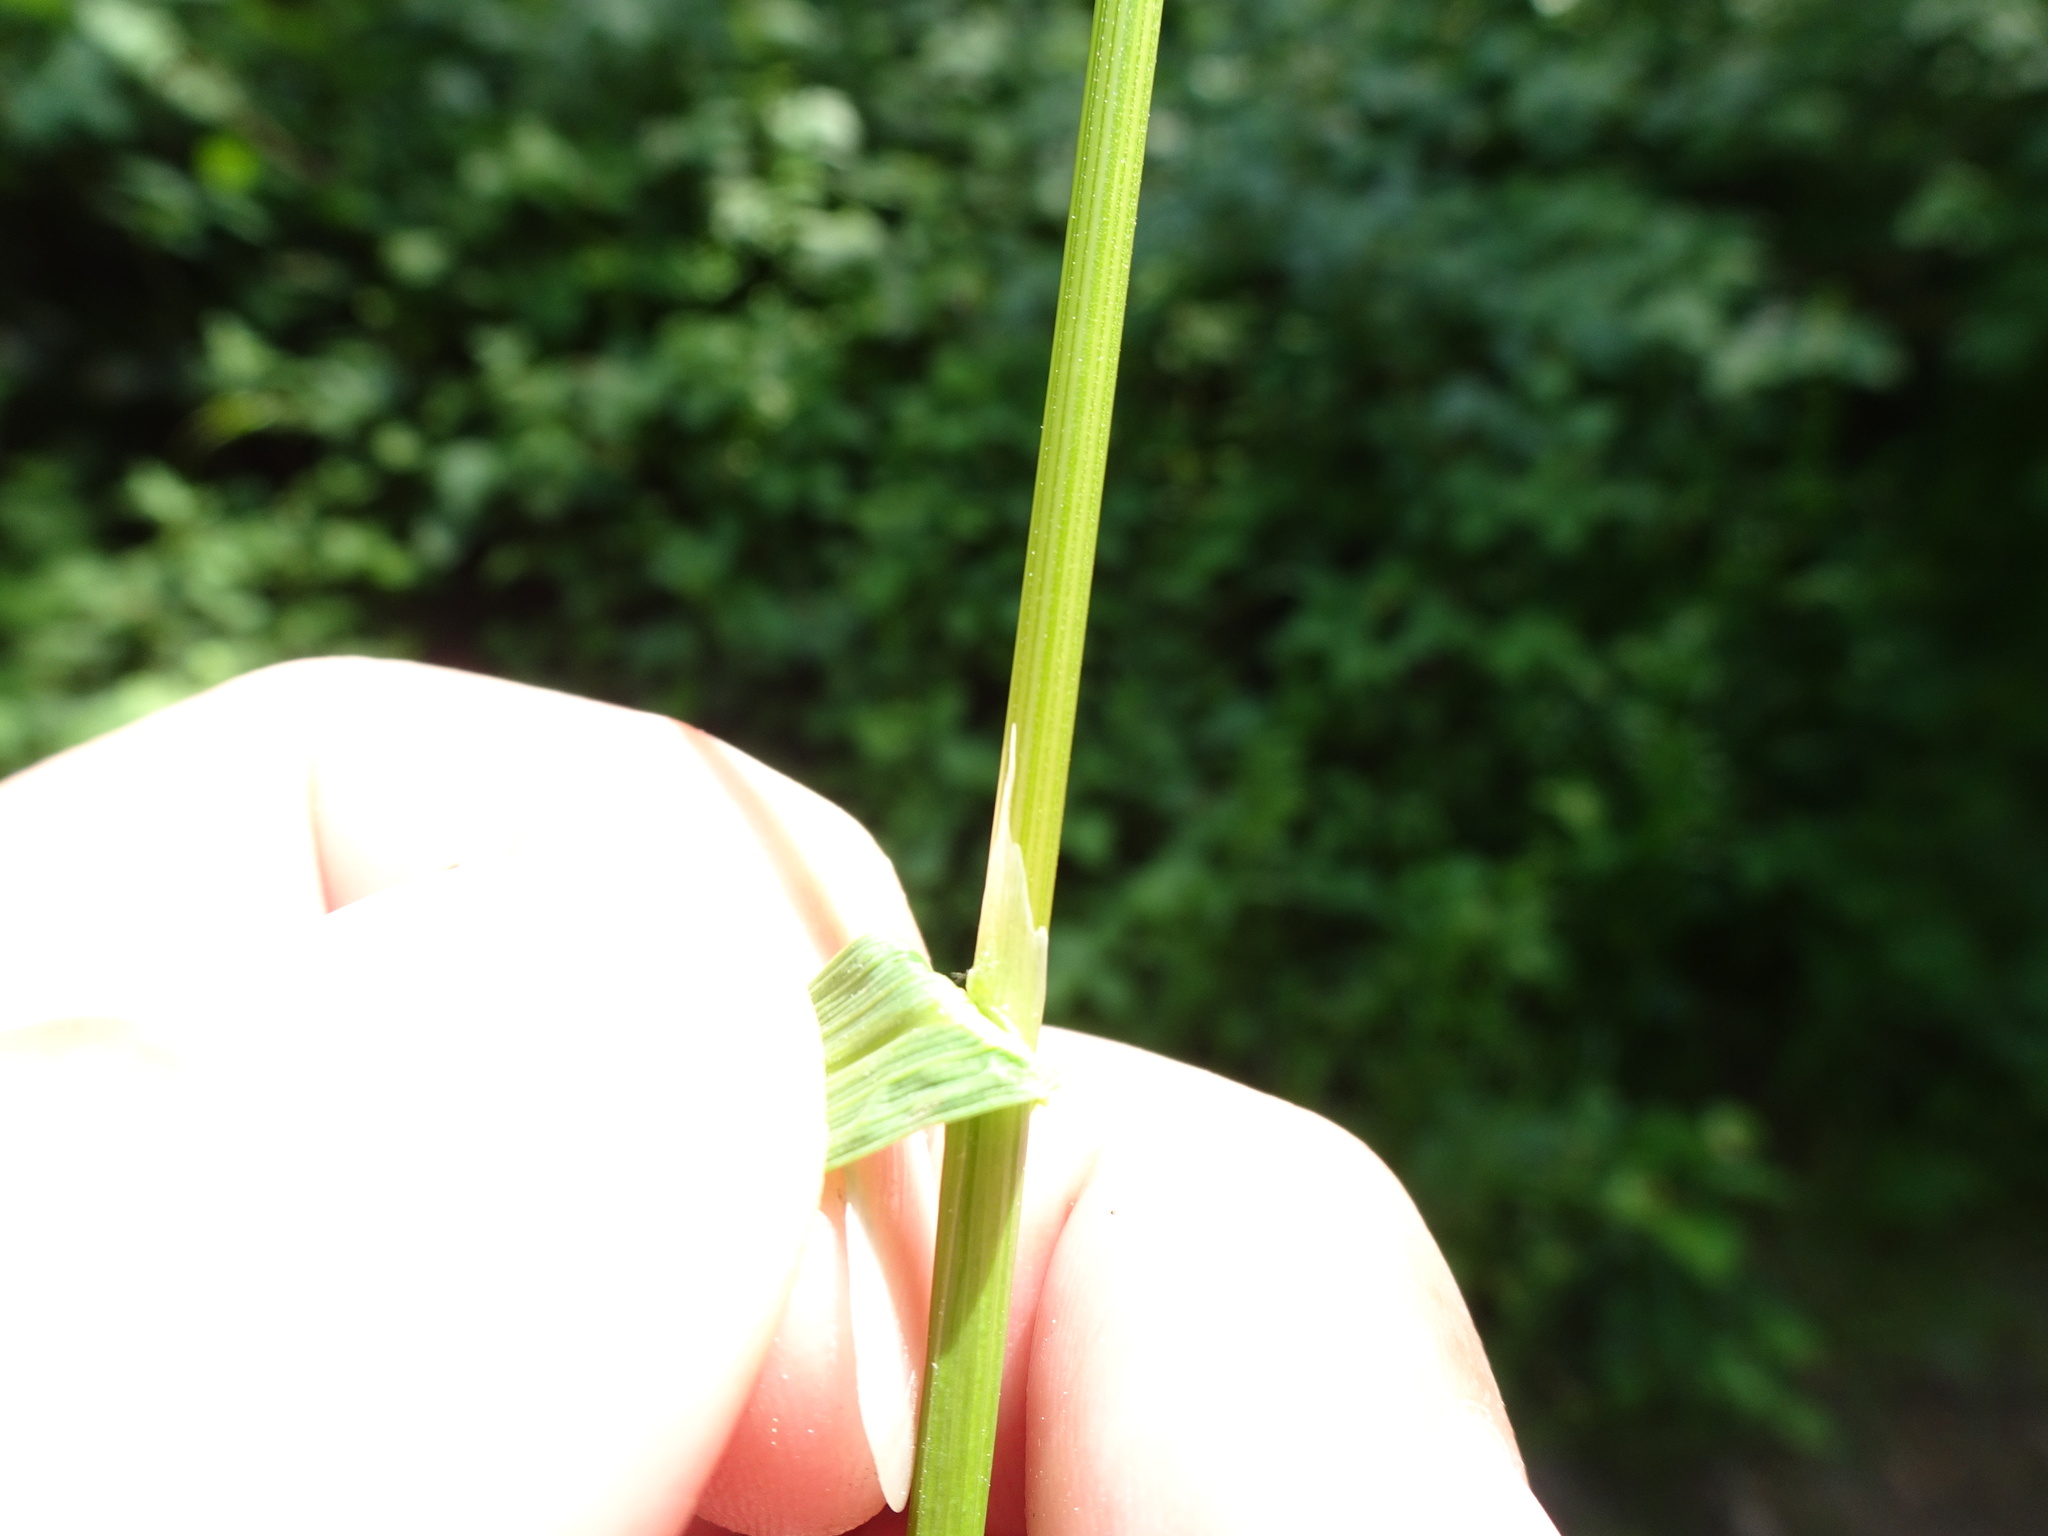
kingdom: Plantae
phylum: Tracheophyta
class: Liliopsida
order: Poales
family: Poaceae
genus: Poa
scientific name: Poa trivialis
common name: Rough bluegrass
